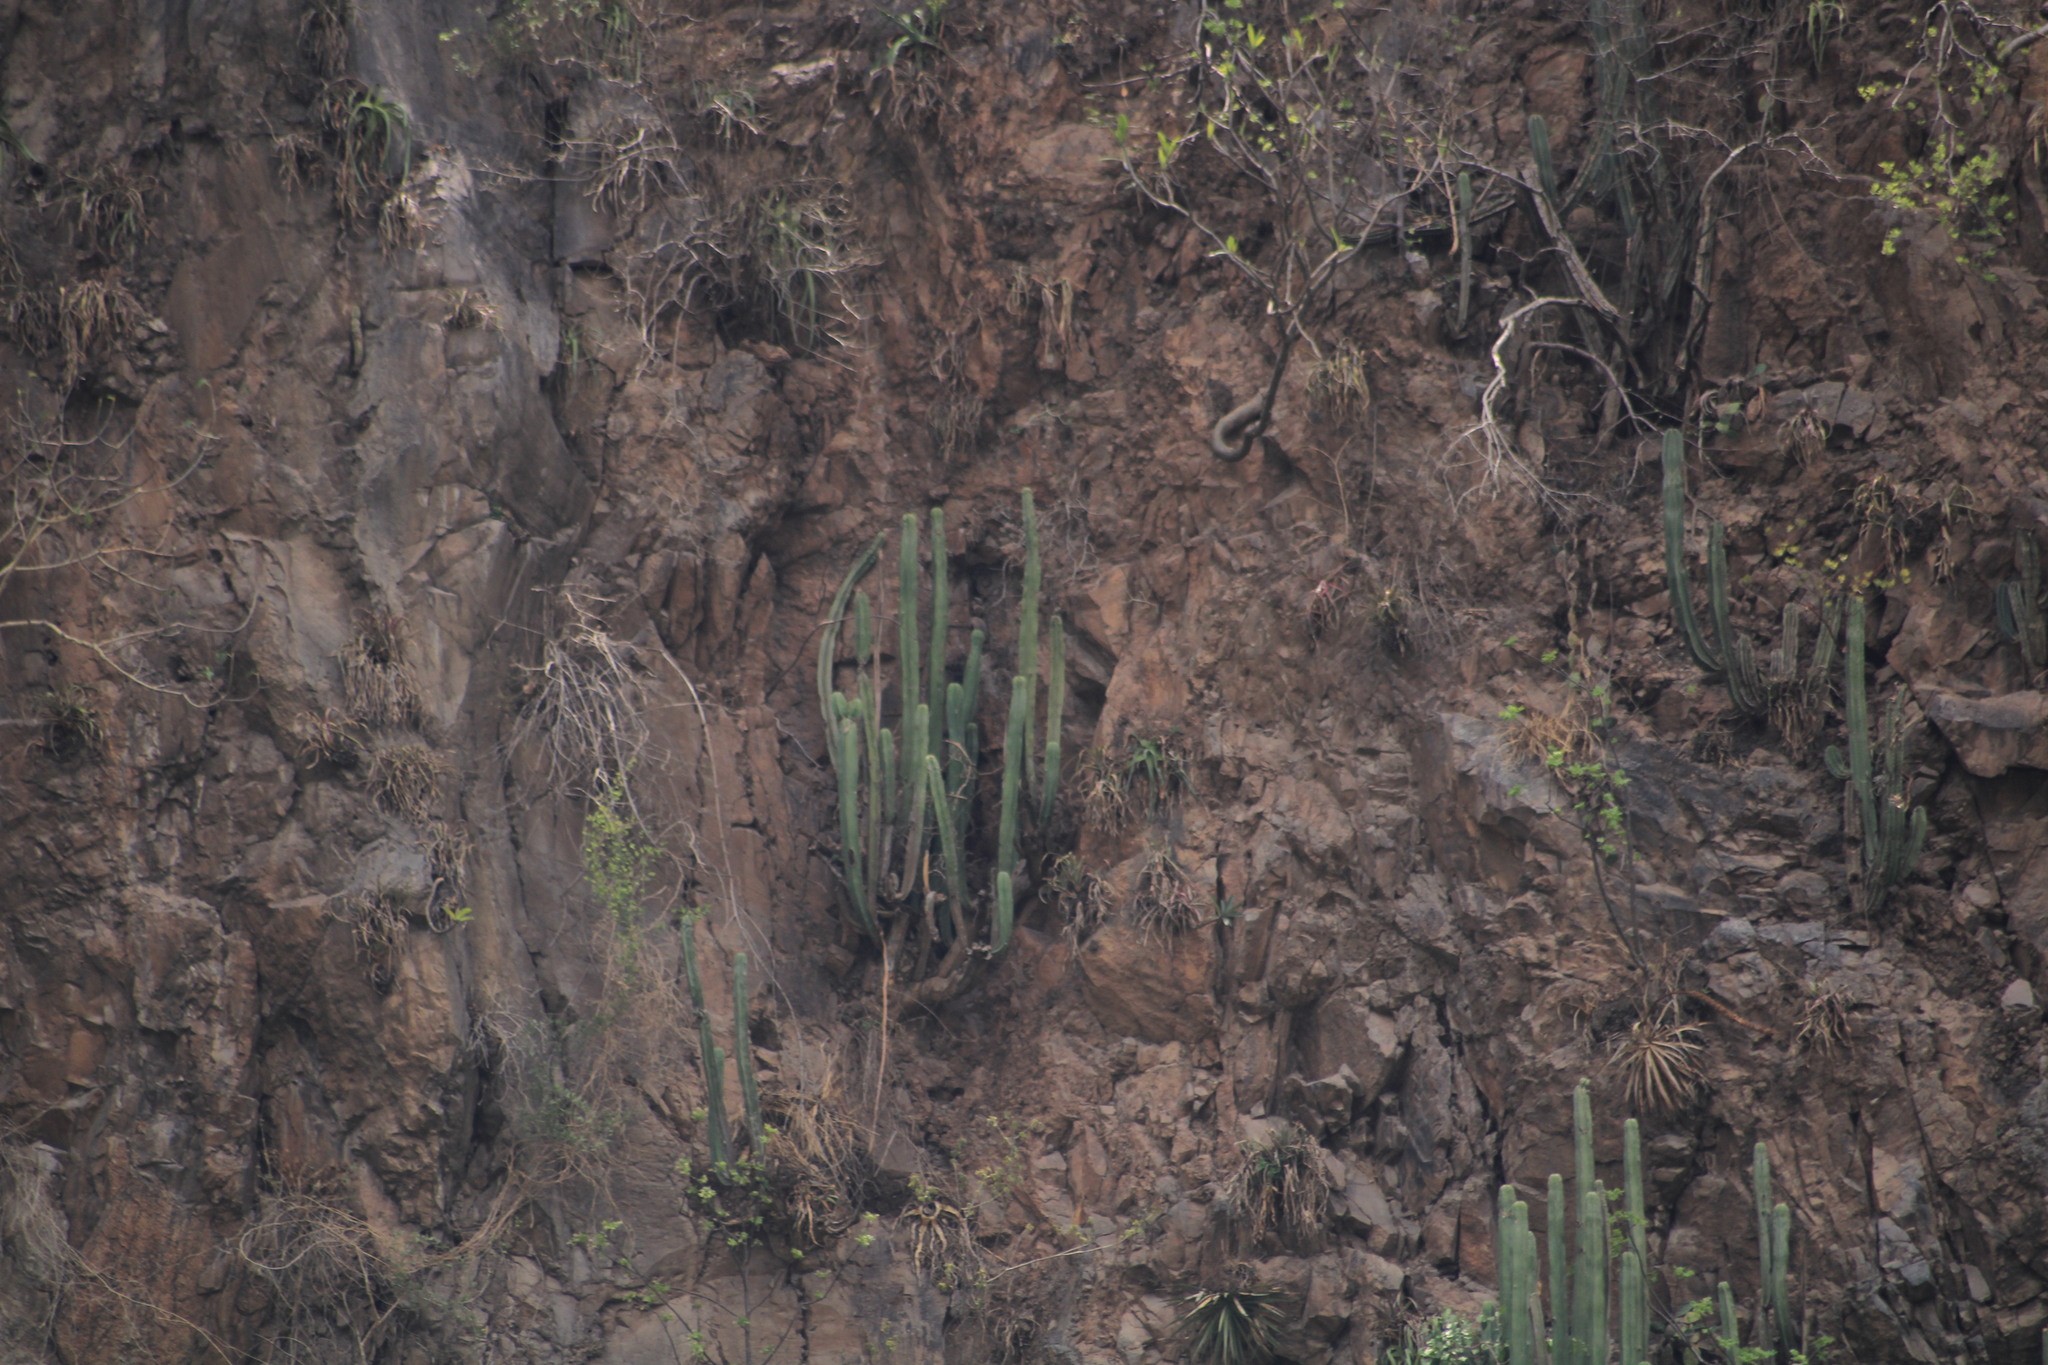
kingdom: Plantae
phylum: Tracheophyta
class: Magnoliopsida
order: Caryophyllales
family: Cactaceae
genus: Stenocereus
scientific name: Stenocereus dumortieri
